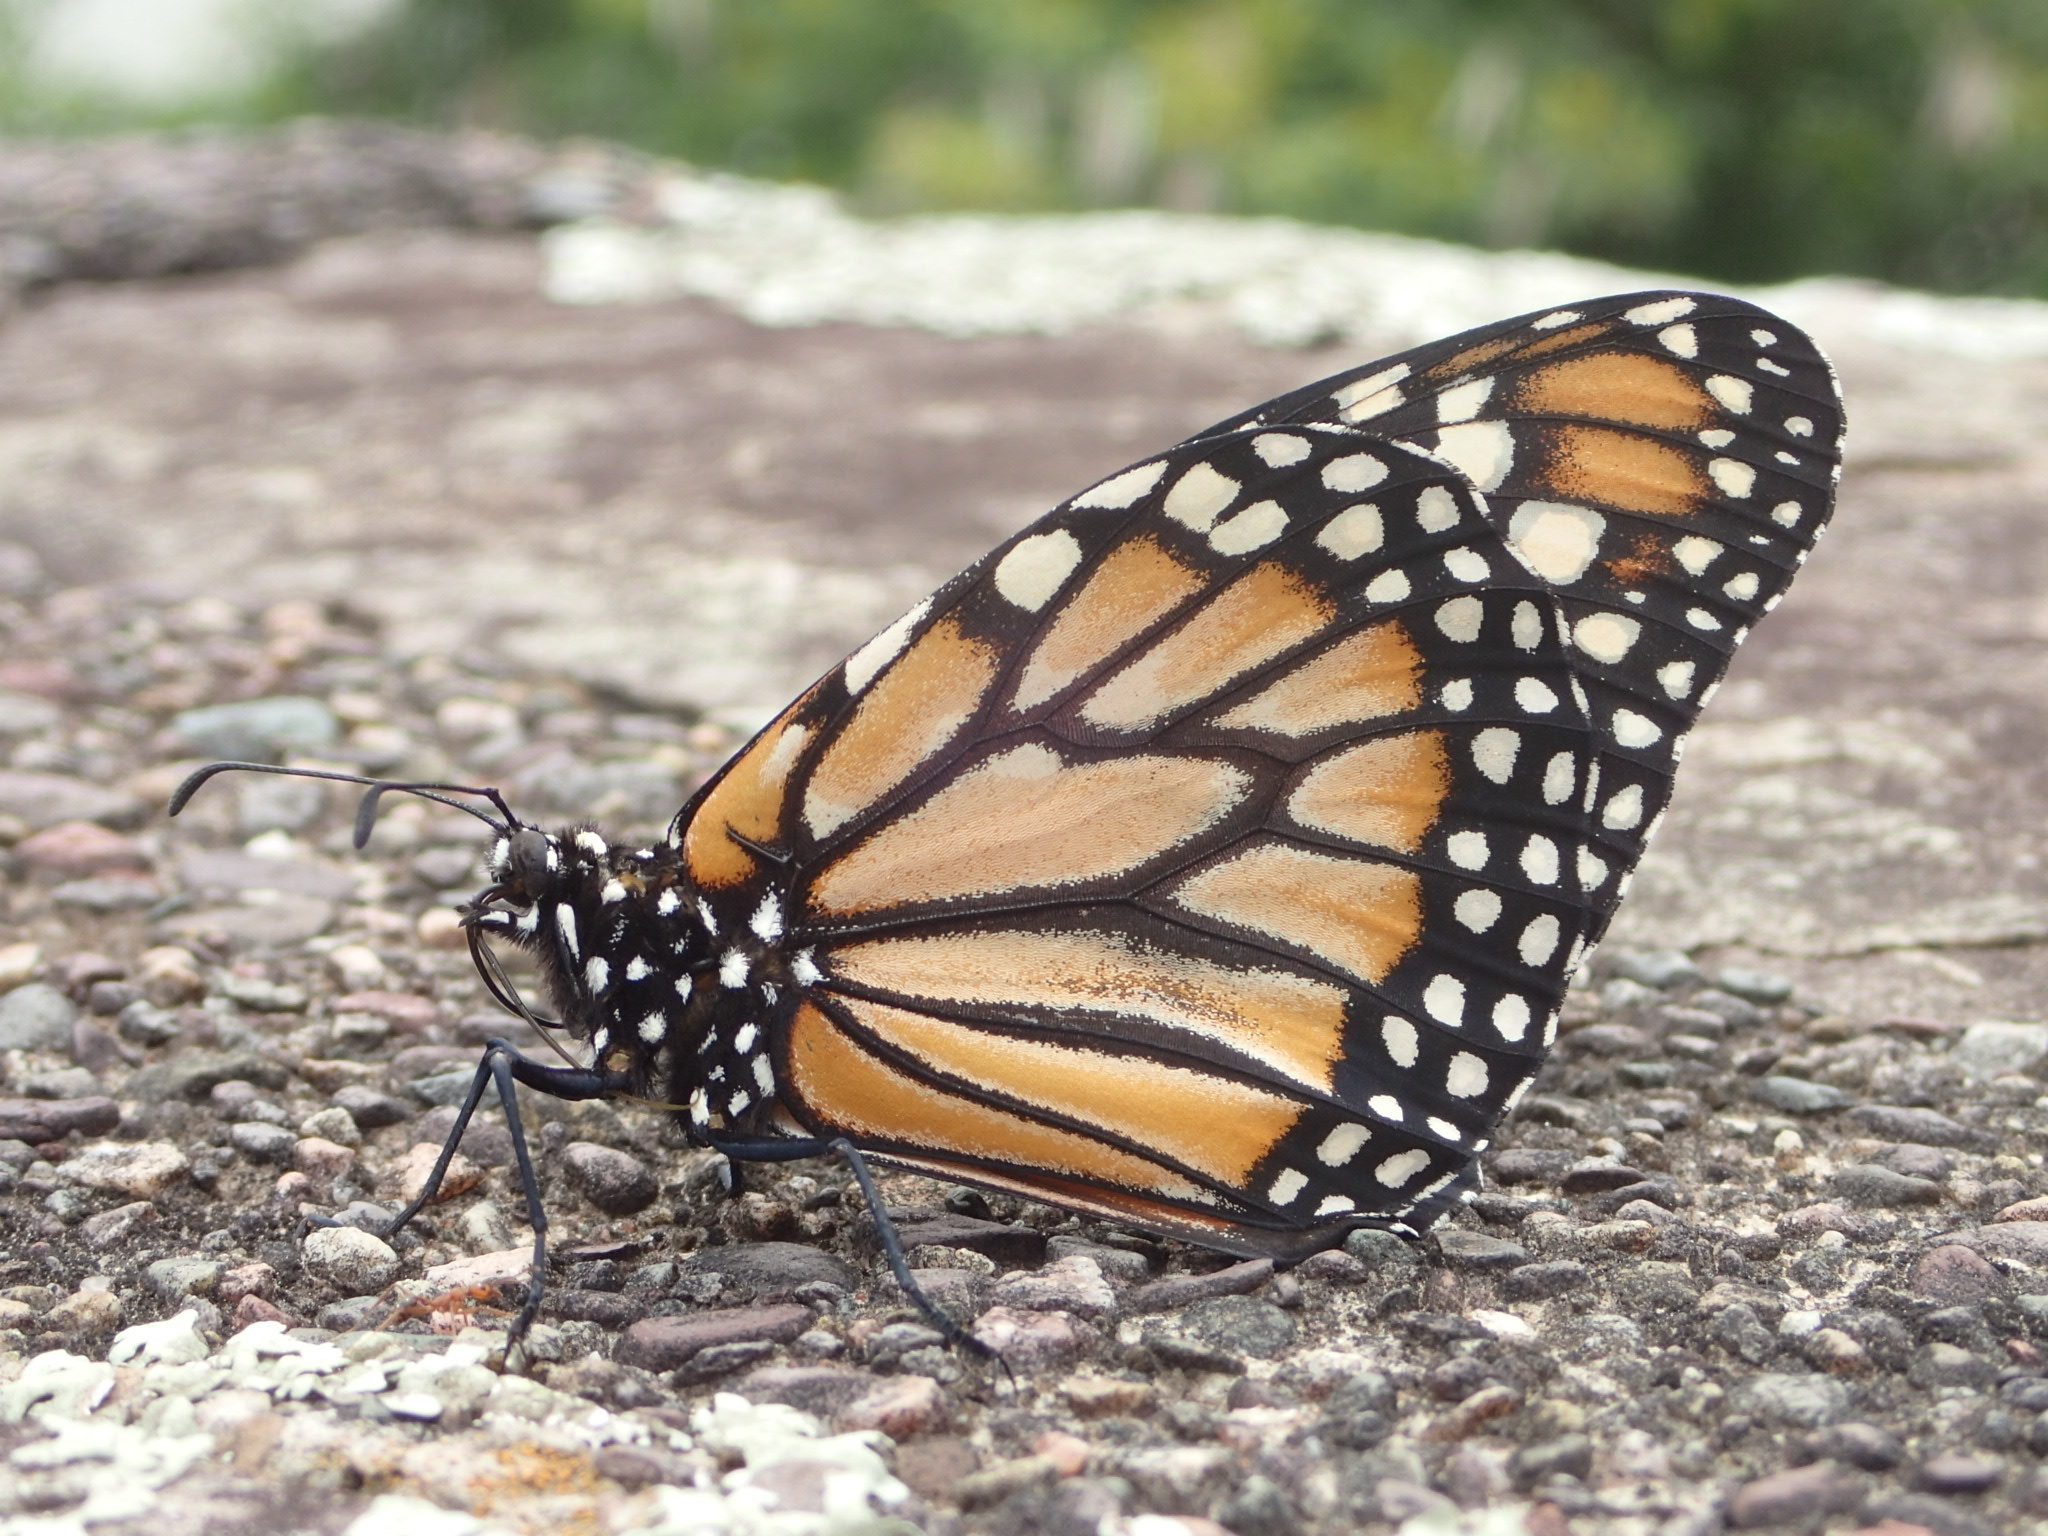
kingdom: Animalia
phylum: Arthropoda
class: Insecta
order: Lepidoptera
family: Nymphalidae
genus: Danaus
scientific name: Danaus erippus
